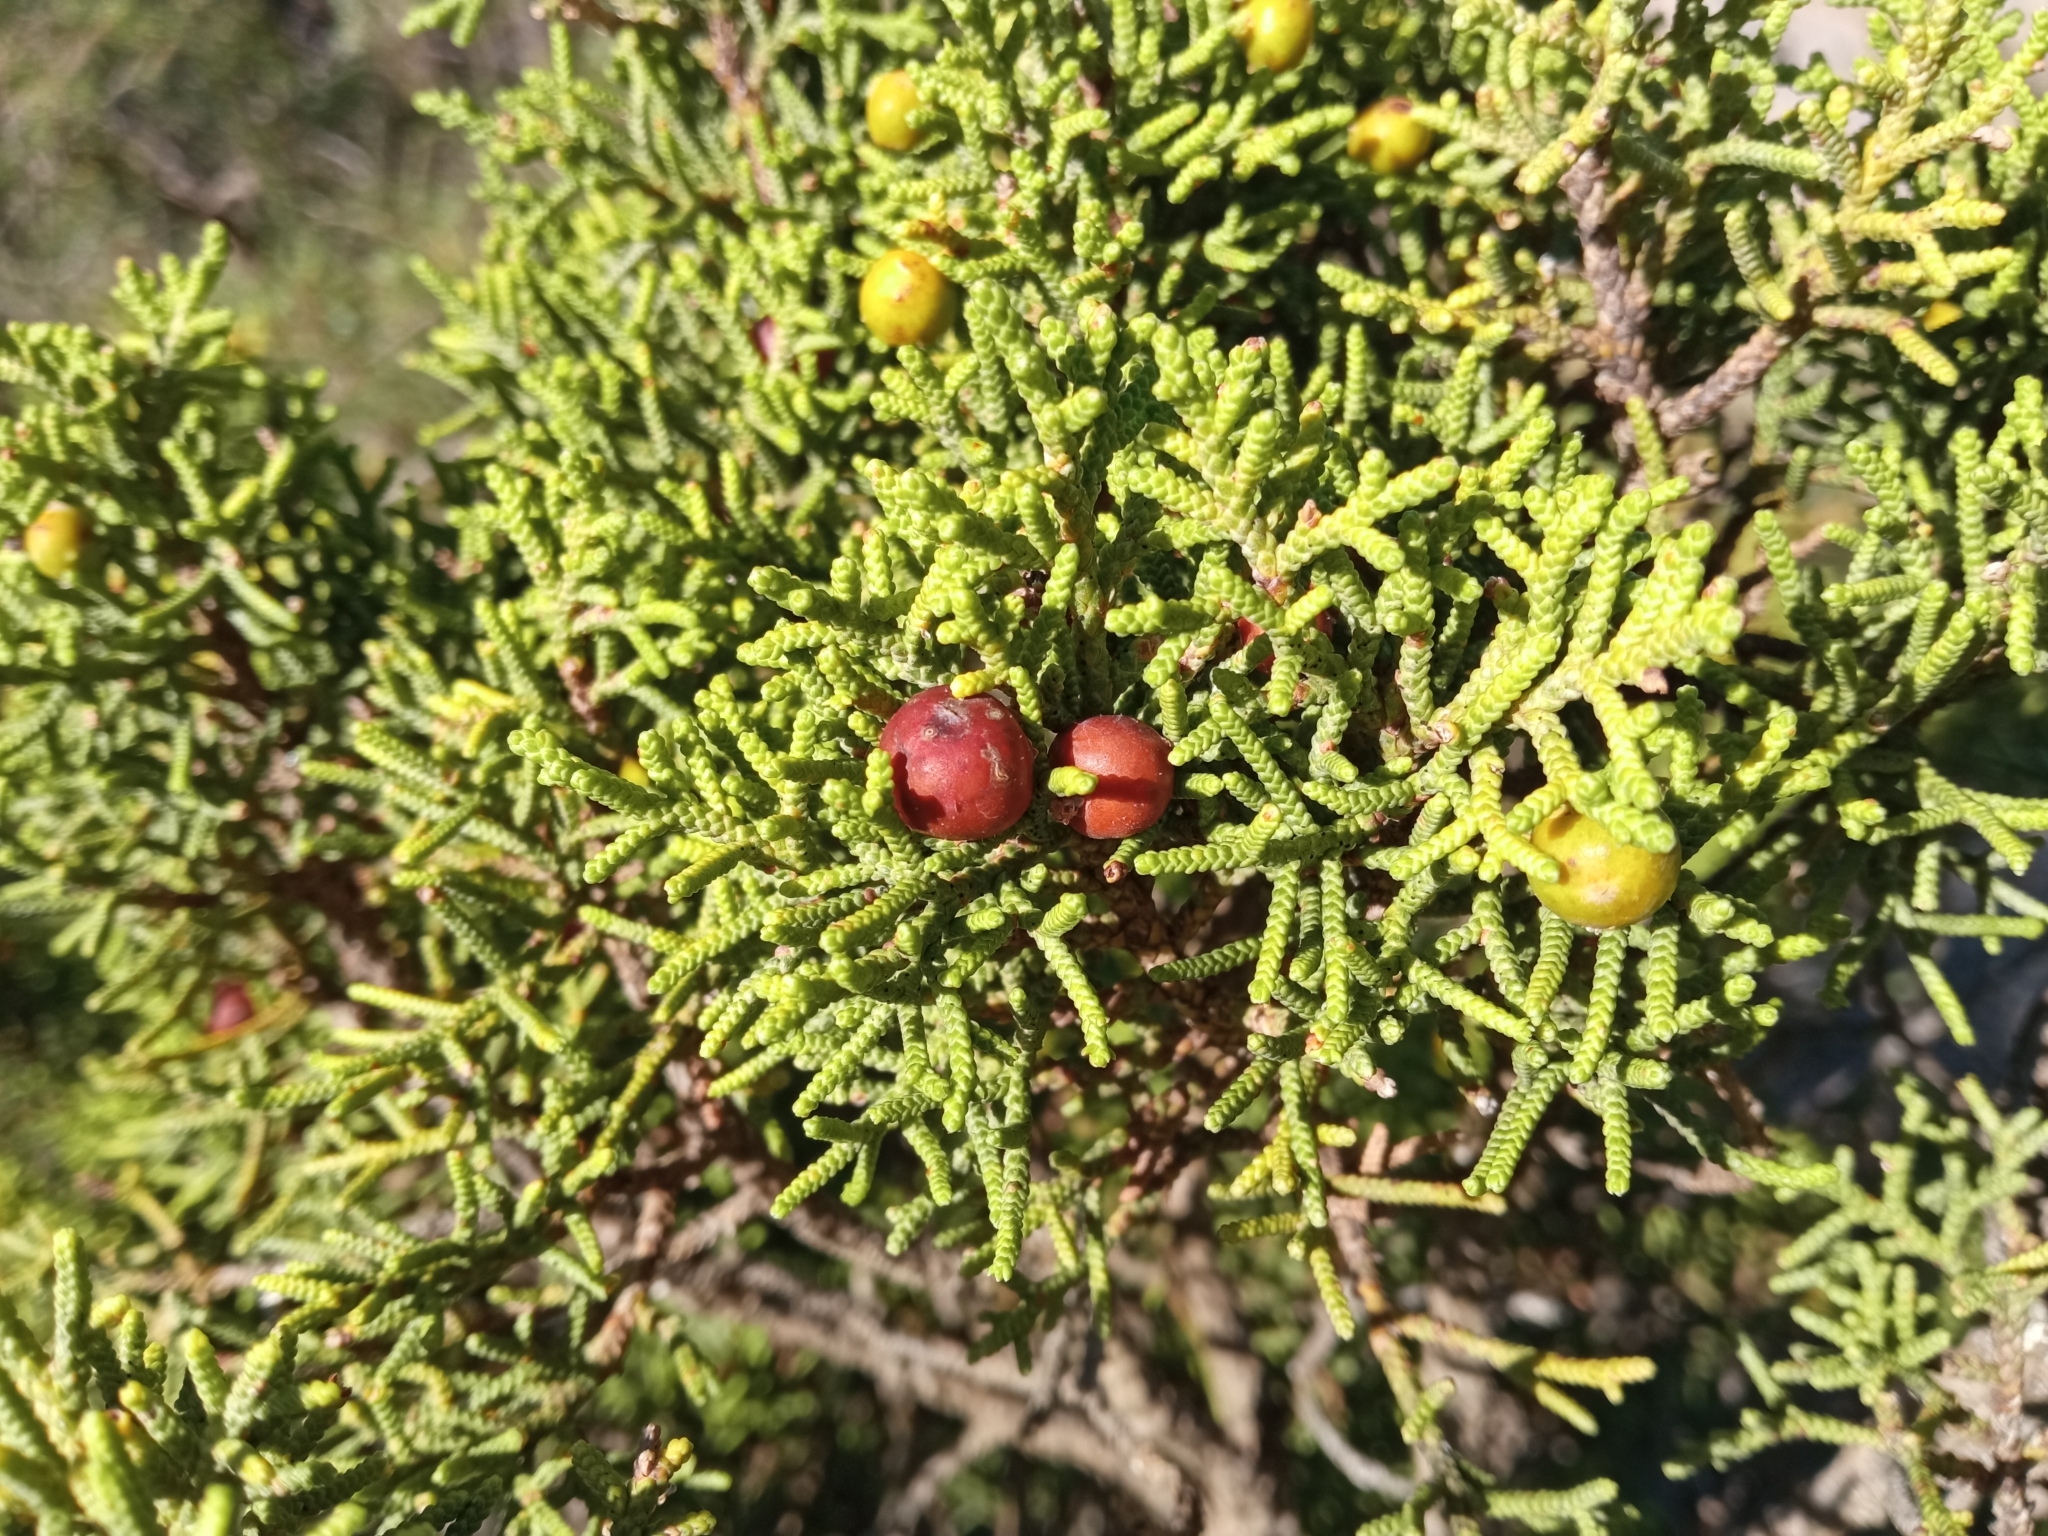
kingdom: Plantae
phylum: Tracheophyta
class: Pinopsida
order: Pinales
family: Cupressaceae
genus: Juniperus
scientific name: Juniperus phoenicea
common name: Phoenician juniper
